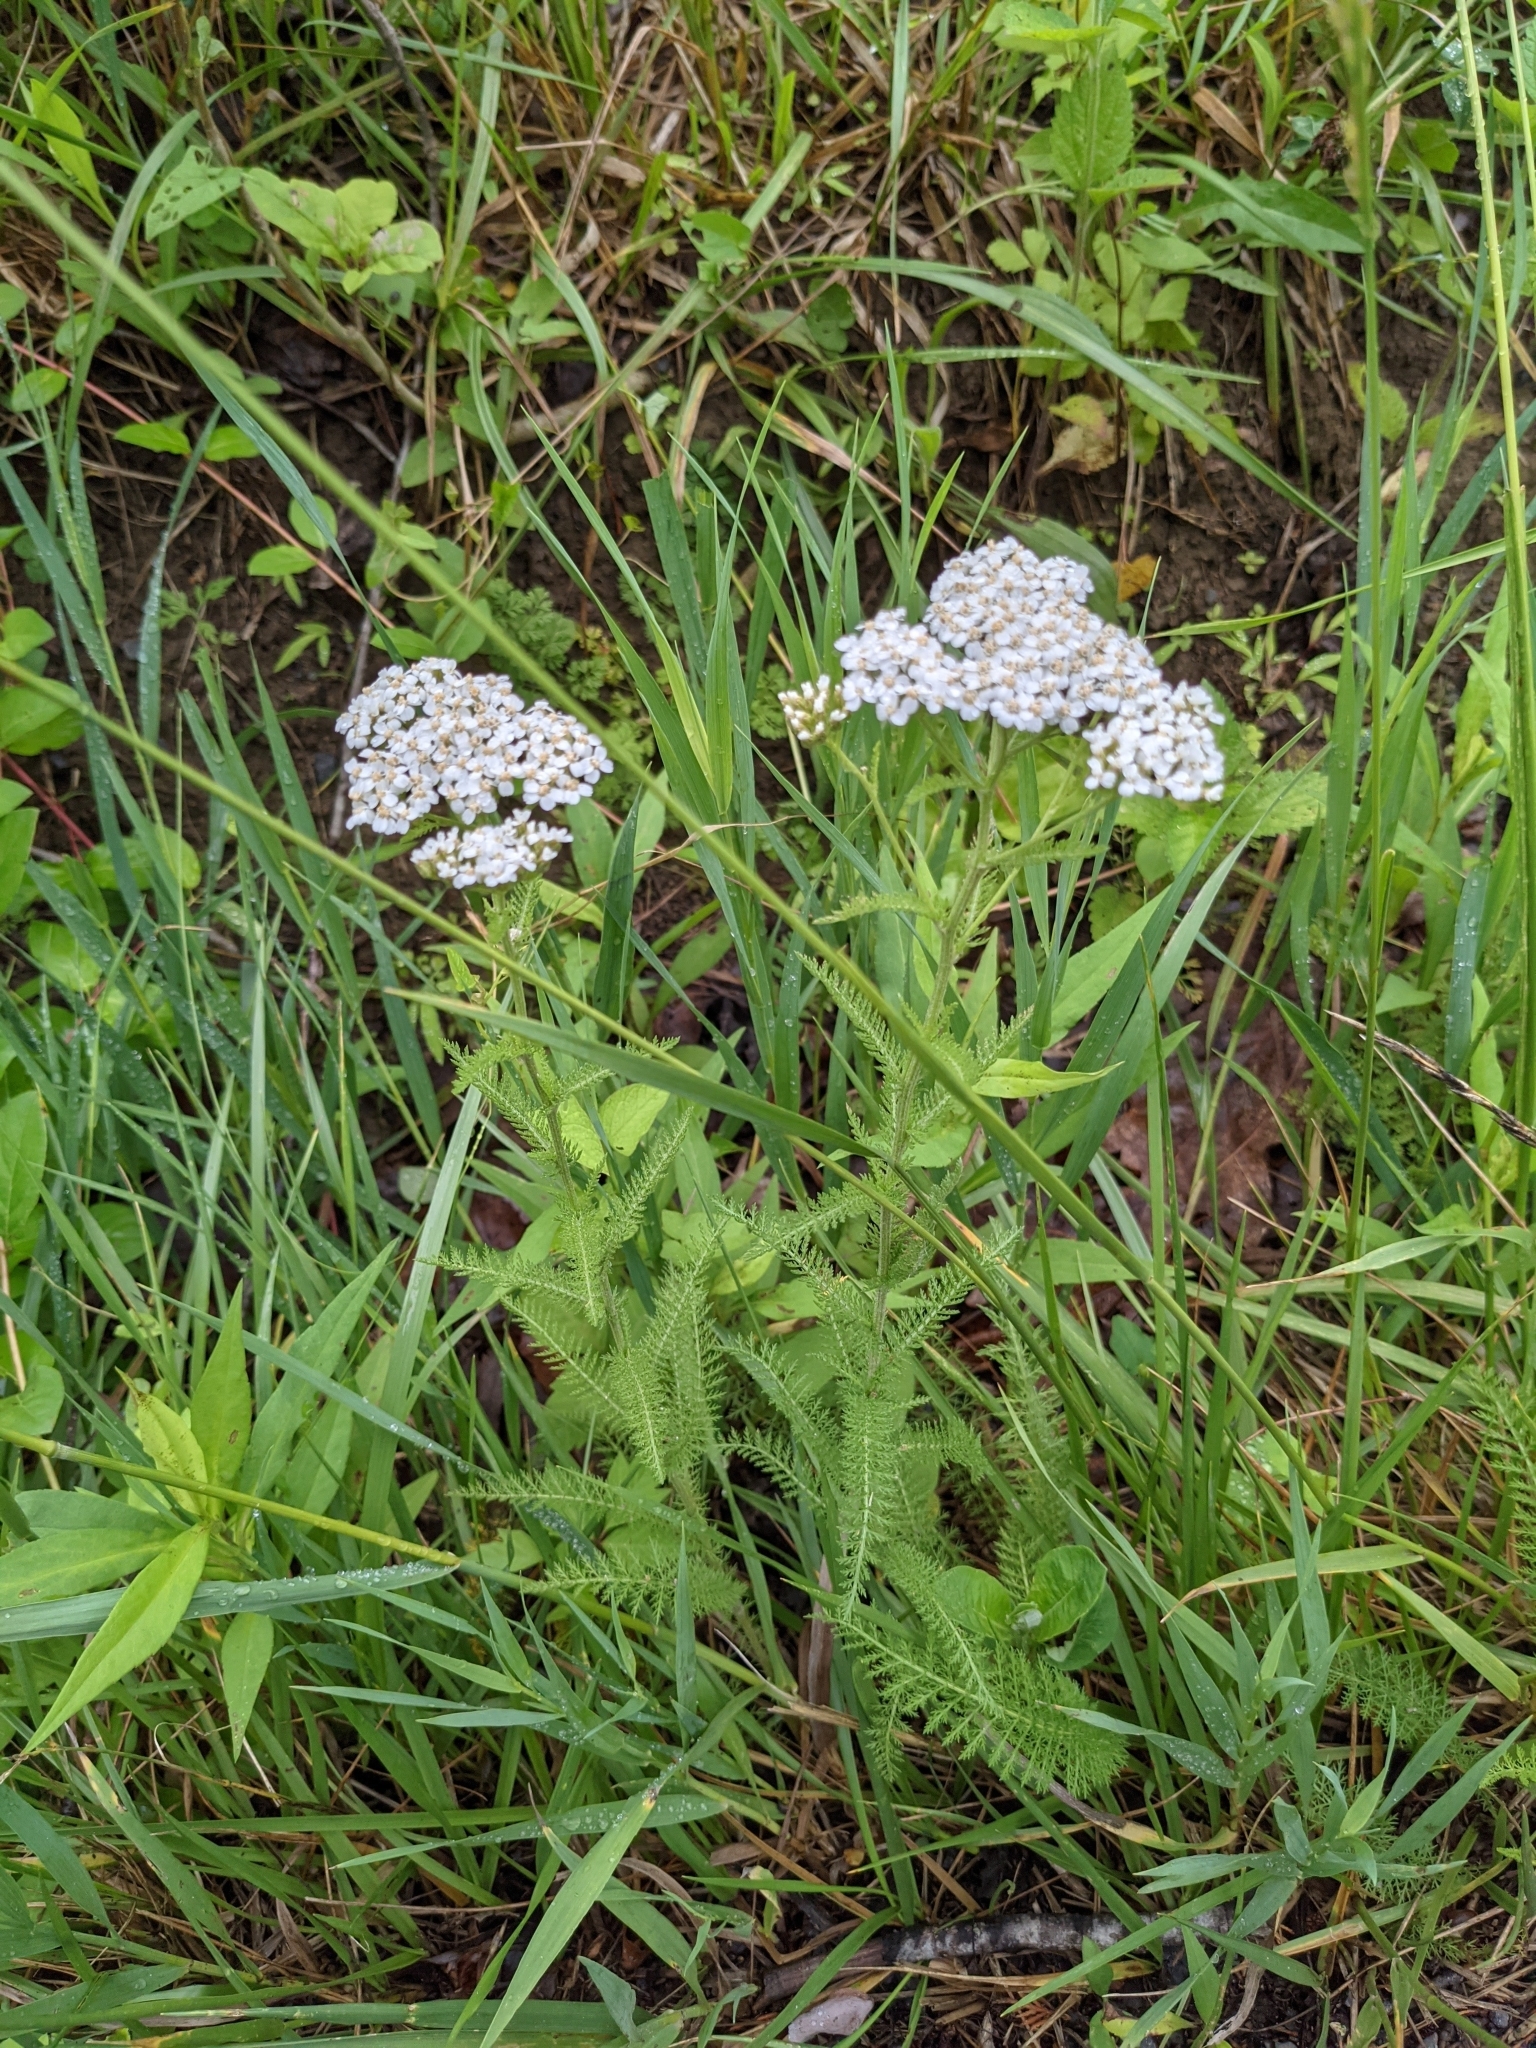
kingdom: Plantae
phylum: Tracheophyta
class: Magnoliopsida
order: Asterales
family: Asteraceae
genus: Achillea
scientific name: Achillea millefolium
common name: Yarrow
